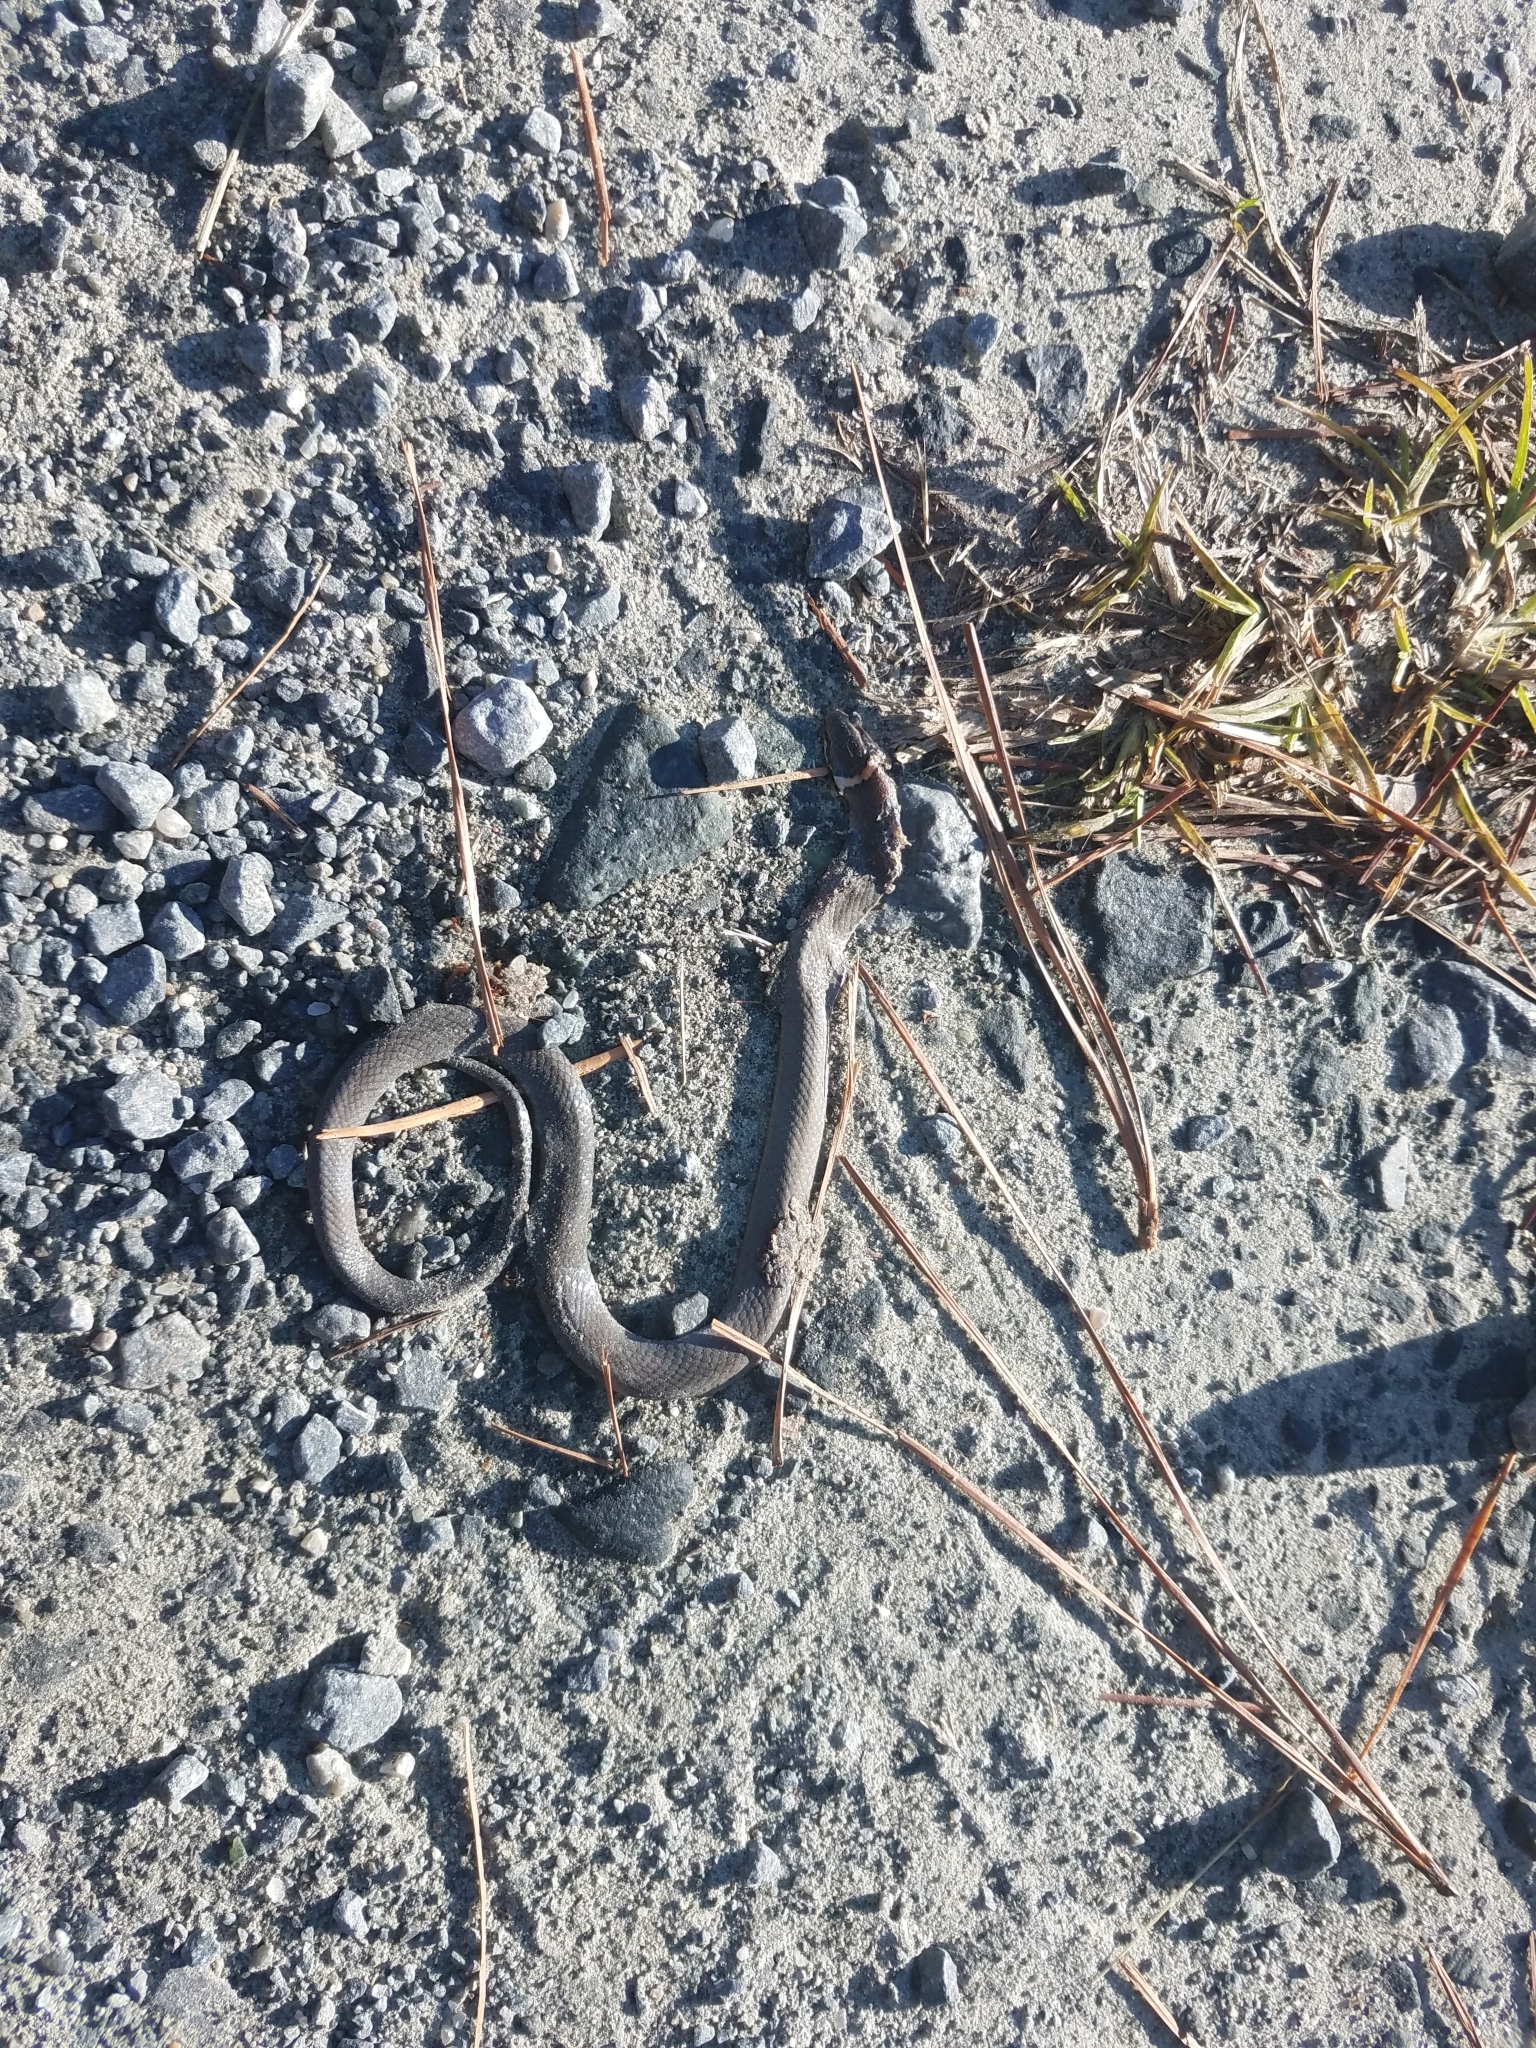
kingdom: Animalia
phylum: Chordata
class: Squamata
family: Colubridae
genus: Diadophis
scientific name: Diadophis punctatus
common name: Ringneck snake
